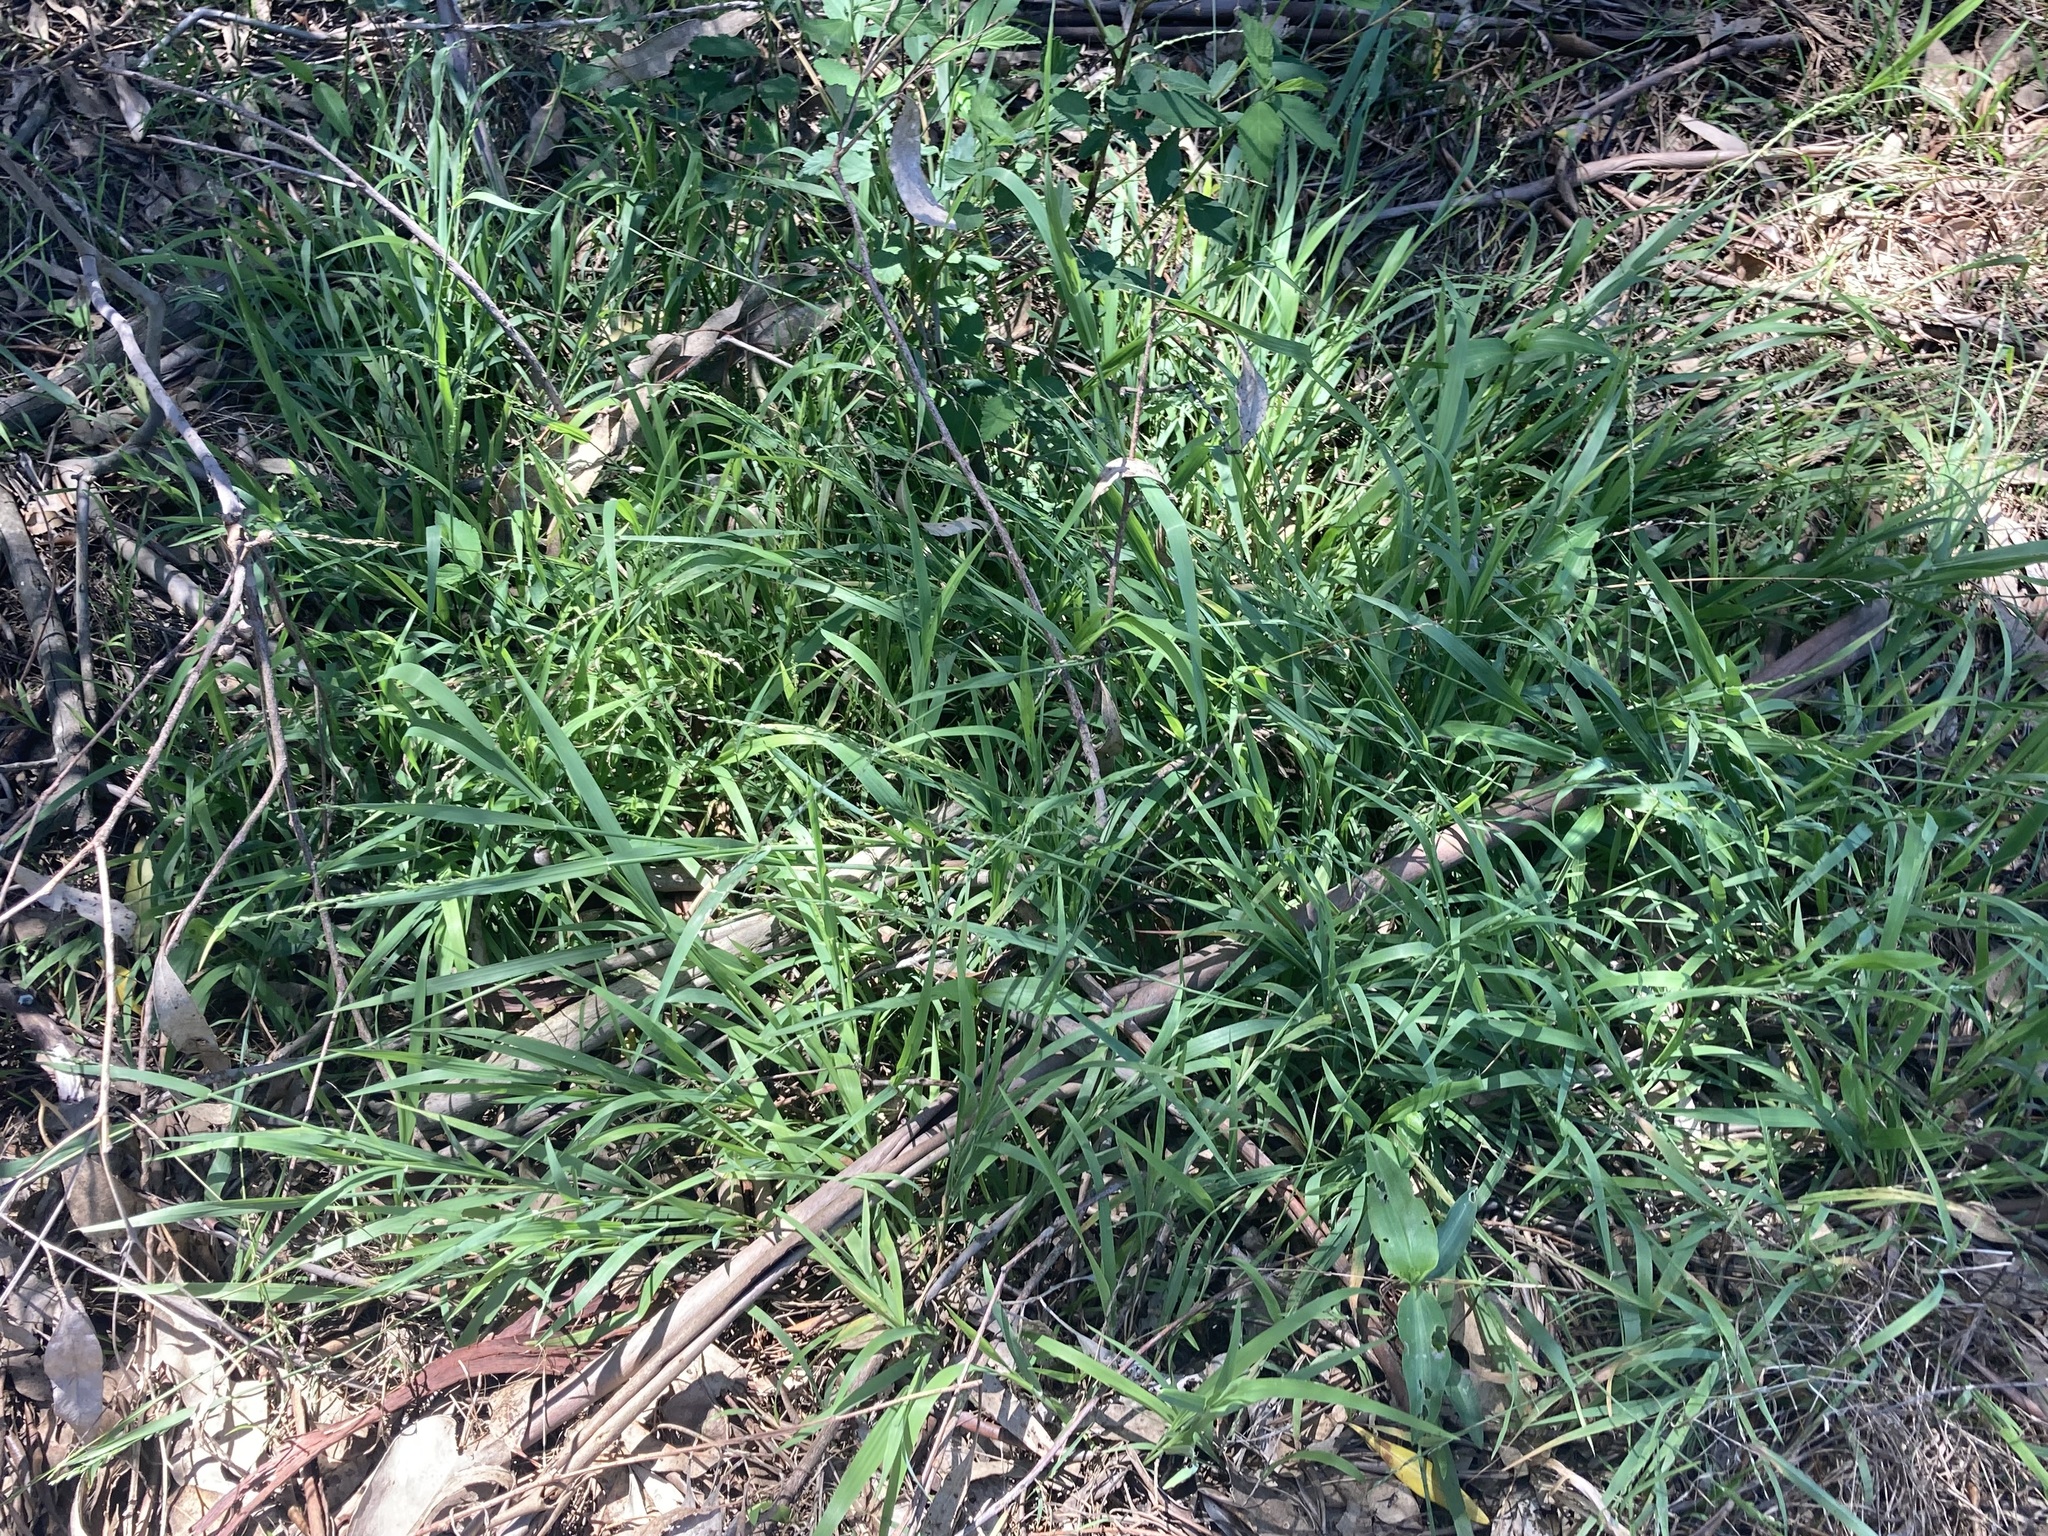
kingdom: Plantae
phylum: Tracheophyta
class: Liliopsida
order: Poales
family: Poaceae
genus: Ehrharta
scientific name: Ehrharta erecta
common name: Panic veldtgrass
